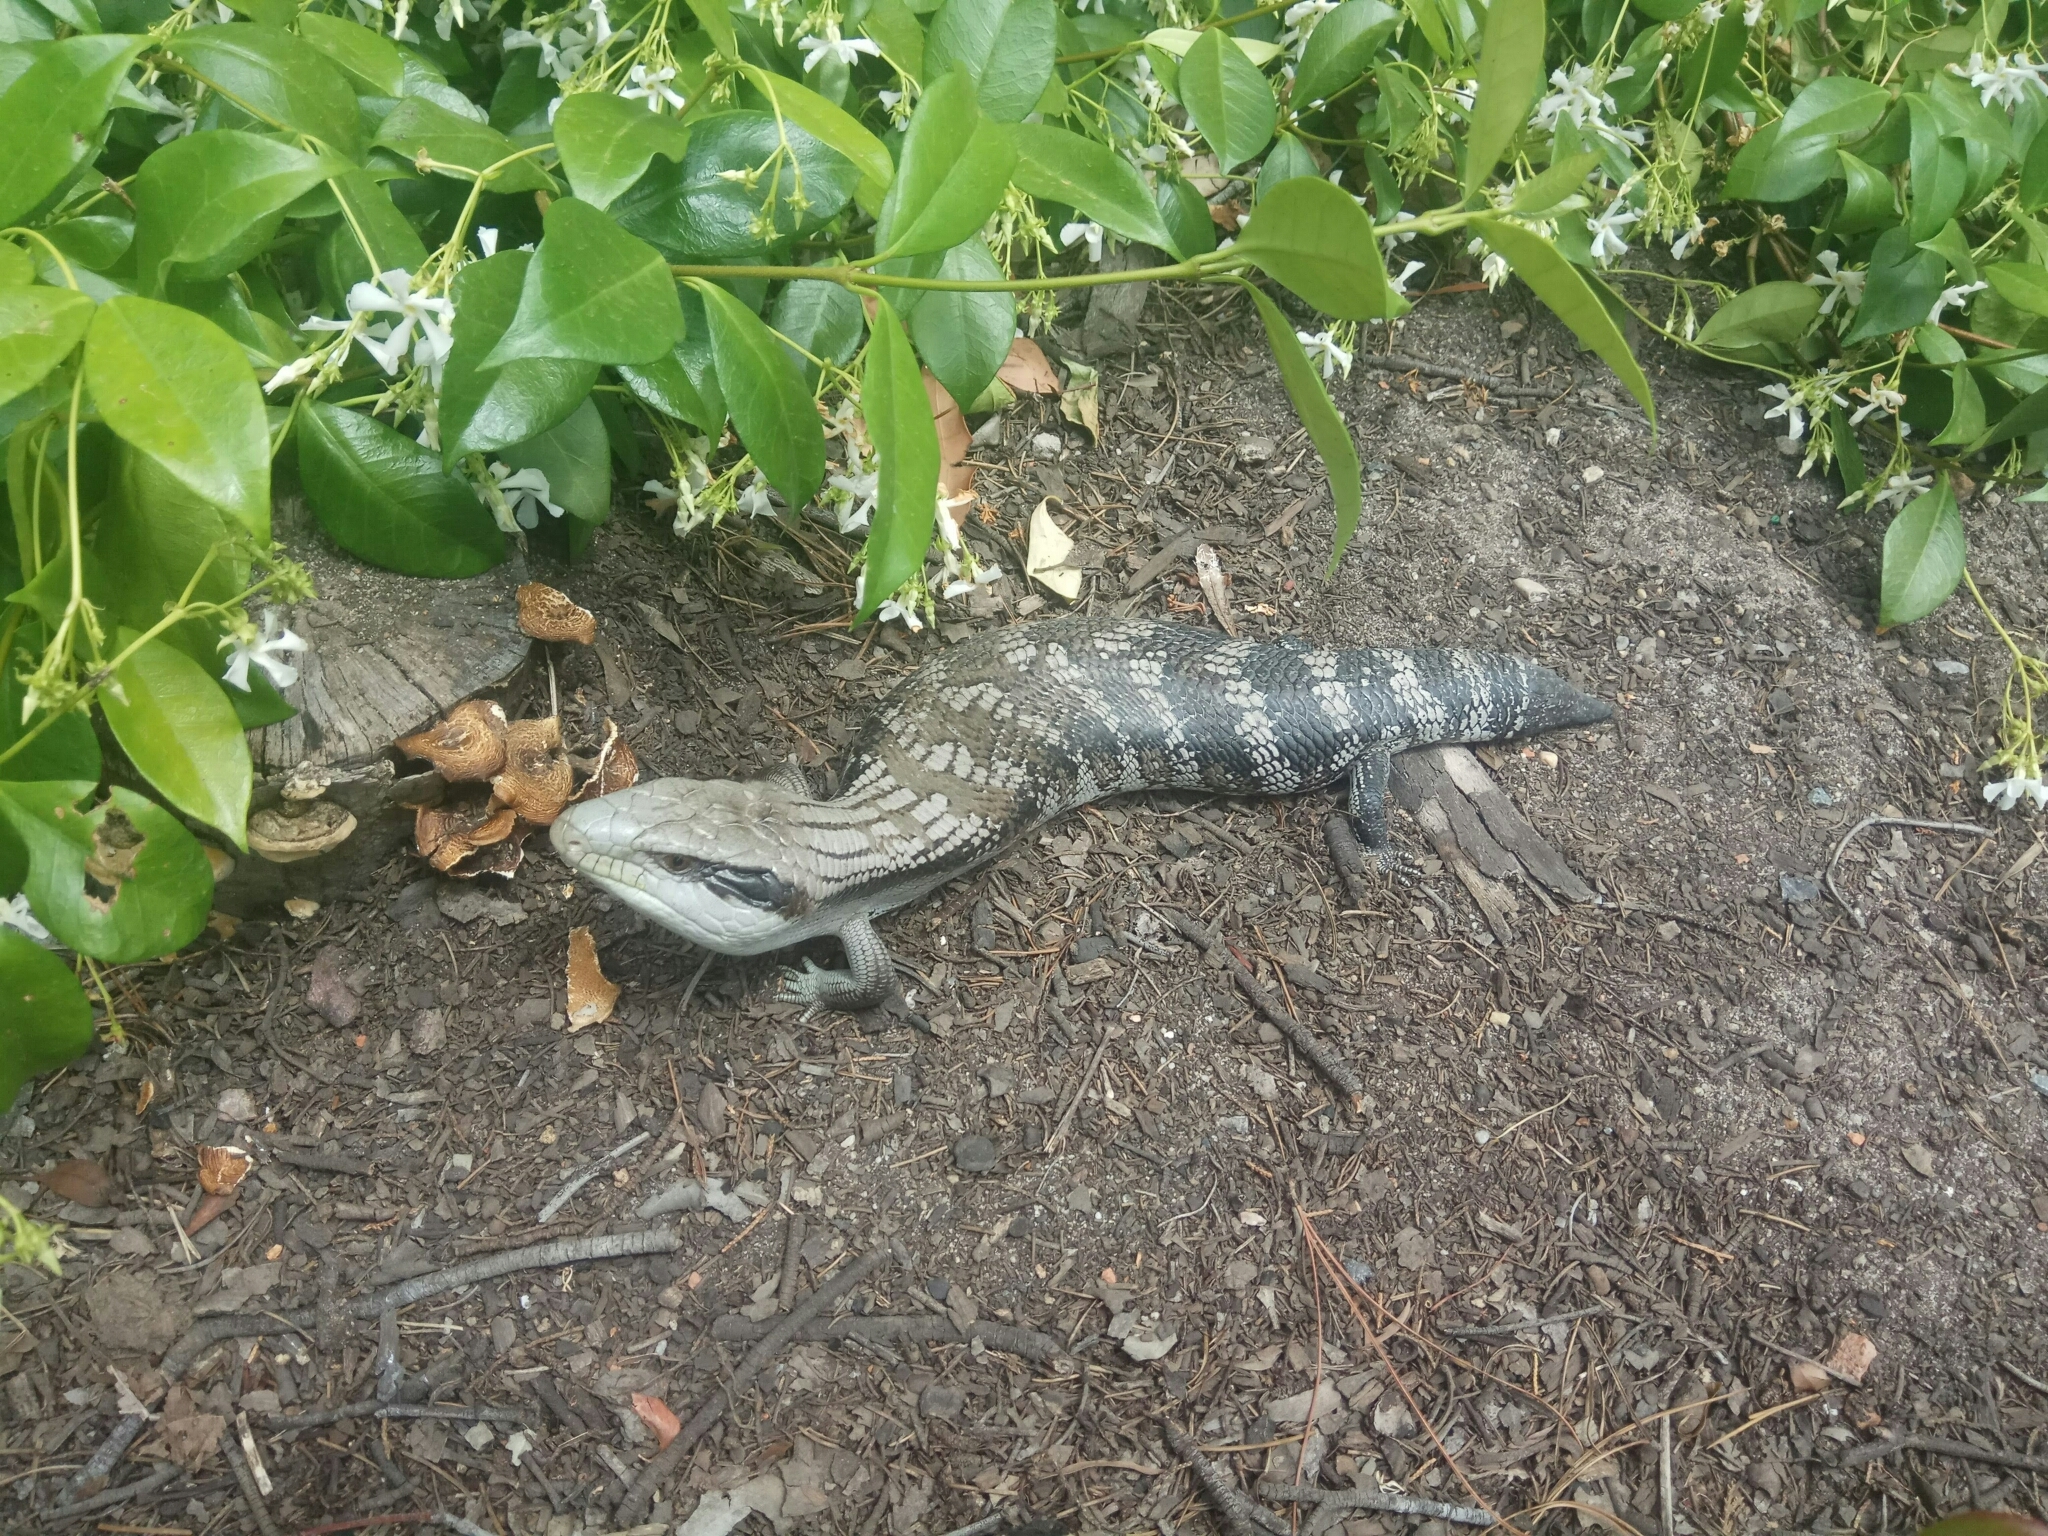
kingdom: Animalia
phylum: Chordata
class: Squamata
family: Scincidae
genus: Tiliqua
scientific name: Tiliqua scincoides
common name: Common bluetongue
